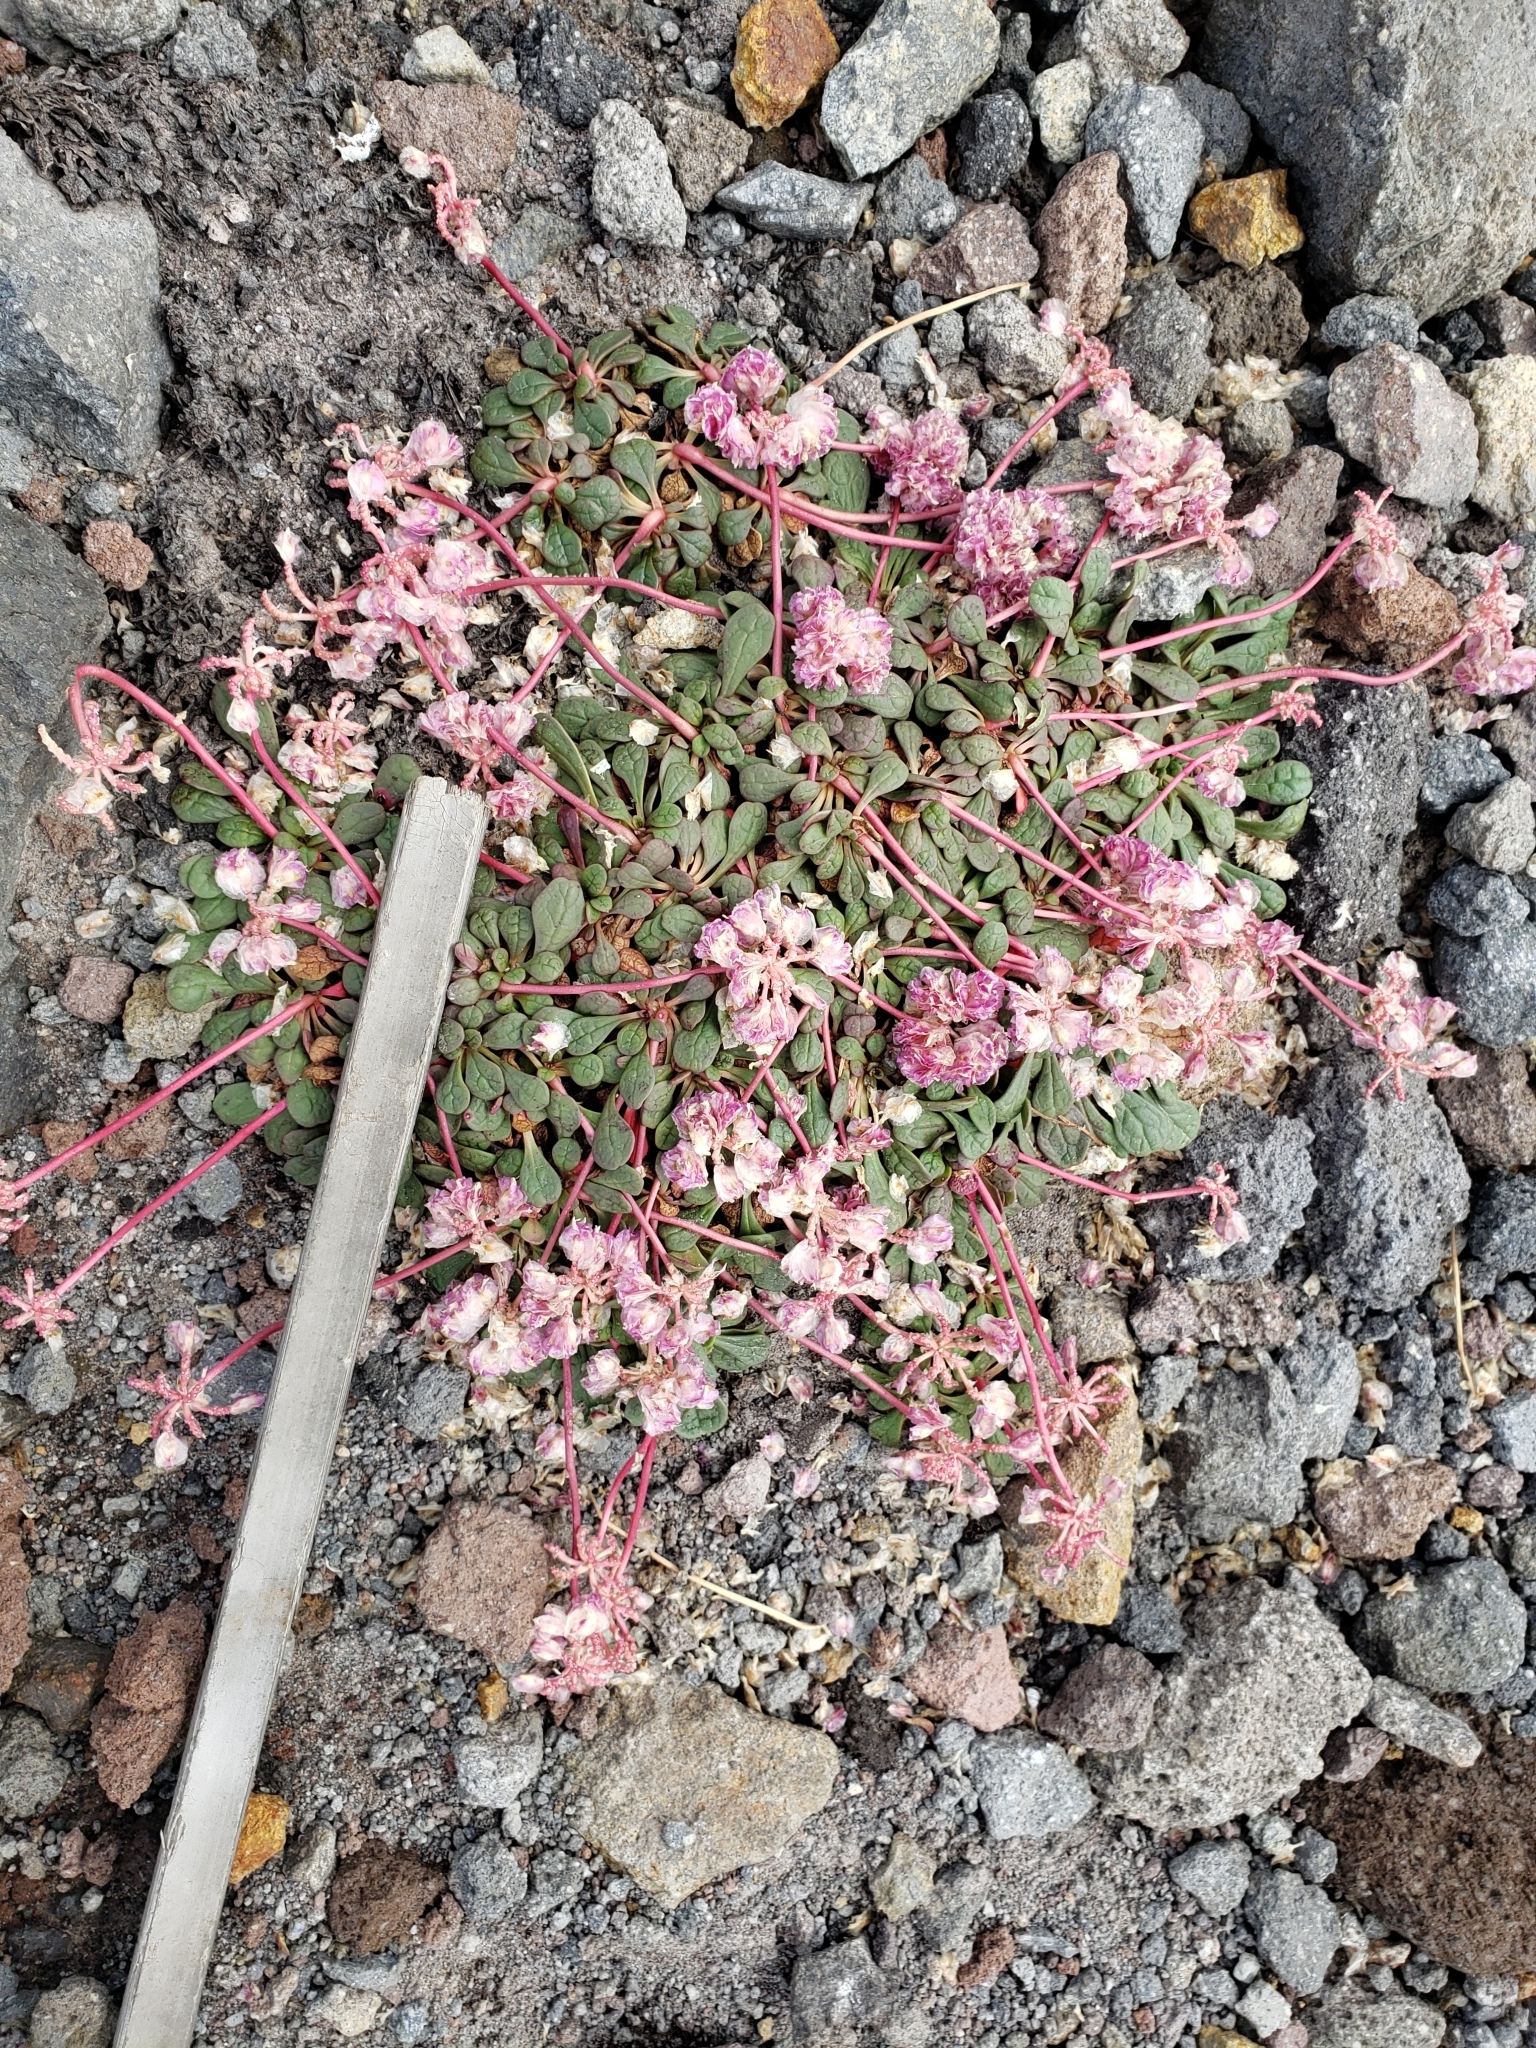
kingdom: Plantae
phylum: Tracheophyta
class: Magnoliopsida
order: Caryophyllales
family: Montiaceae
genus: Calyptridium
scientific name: Calyptridium umbellatum
